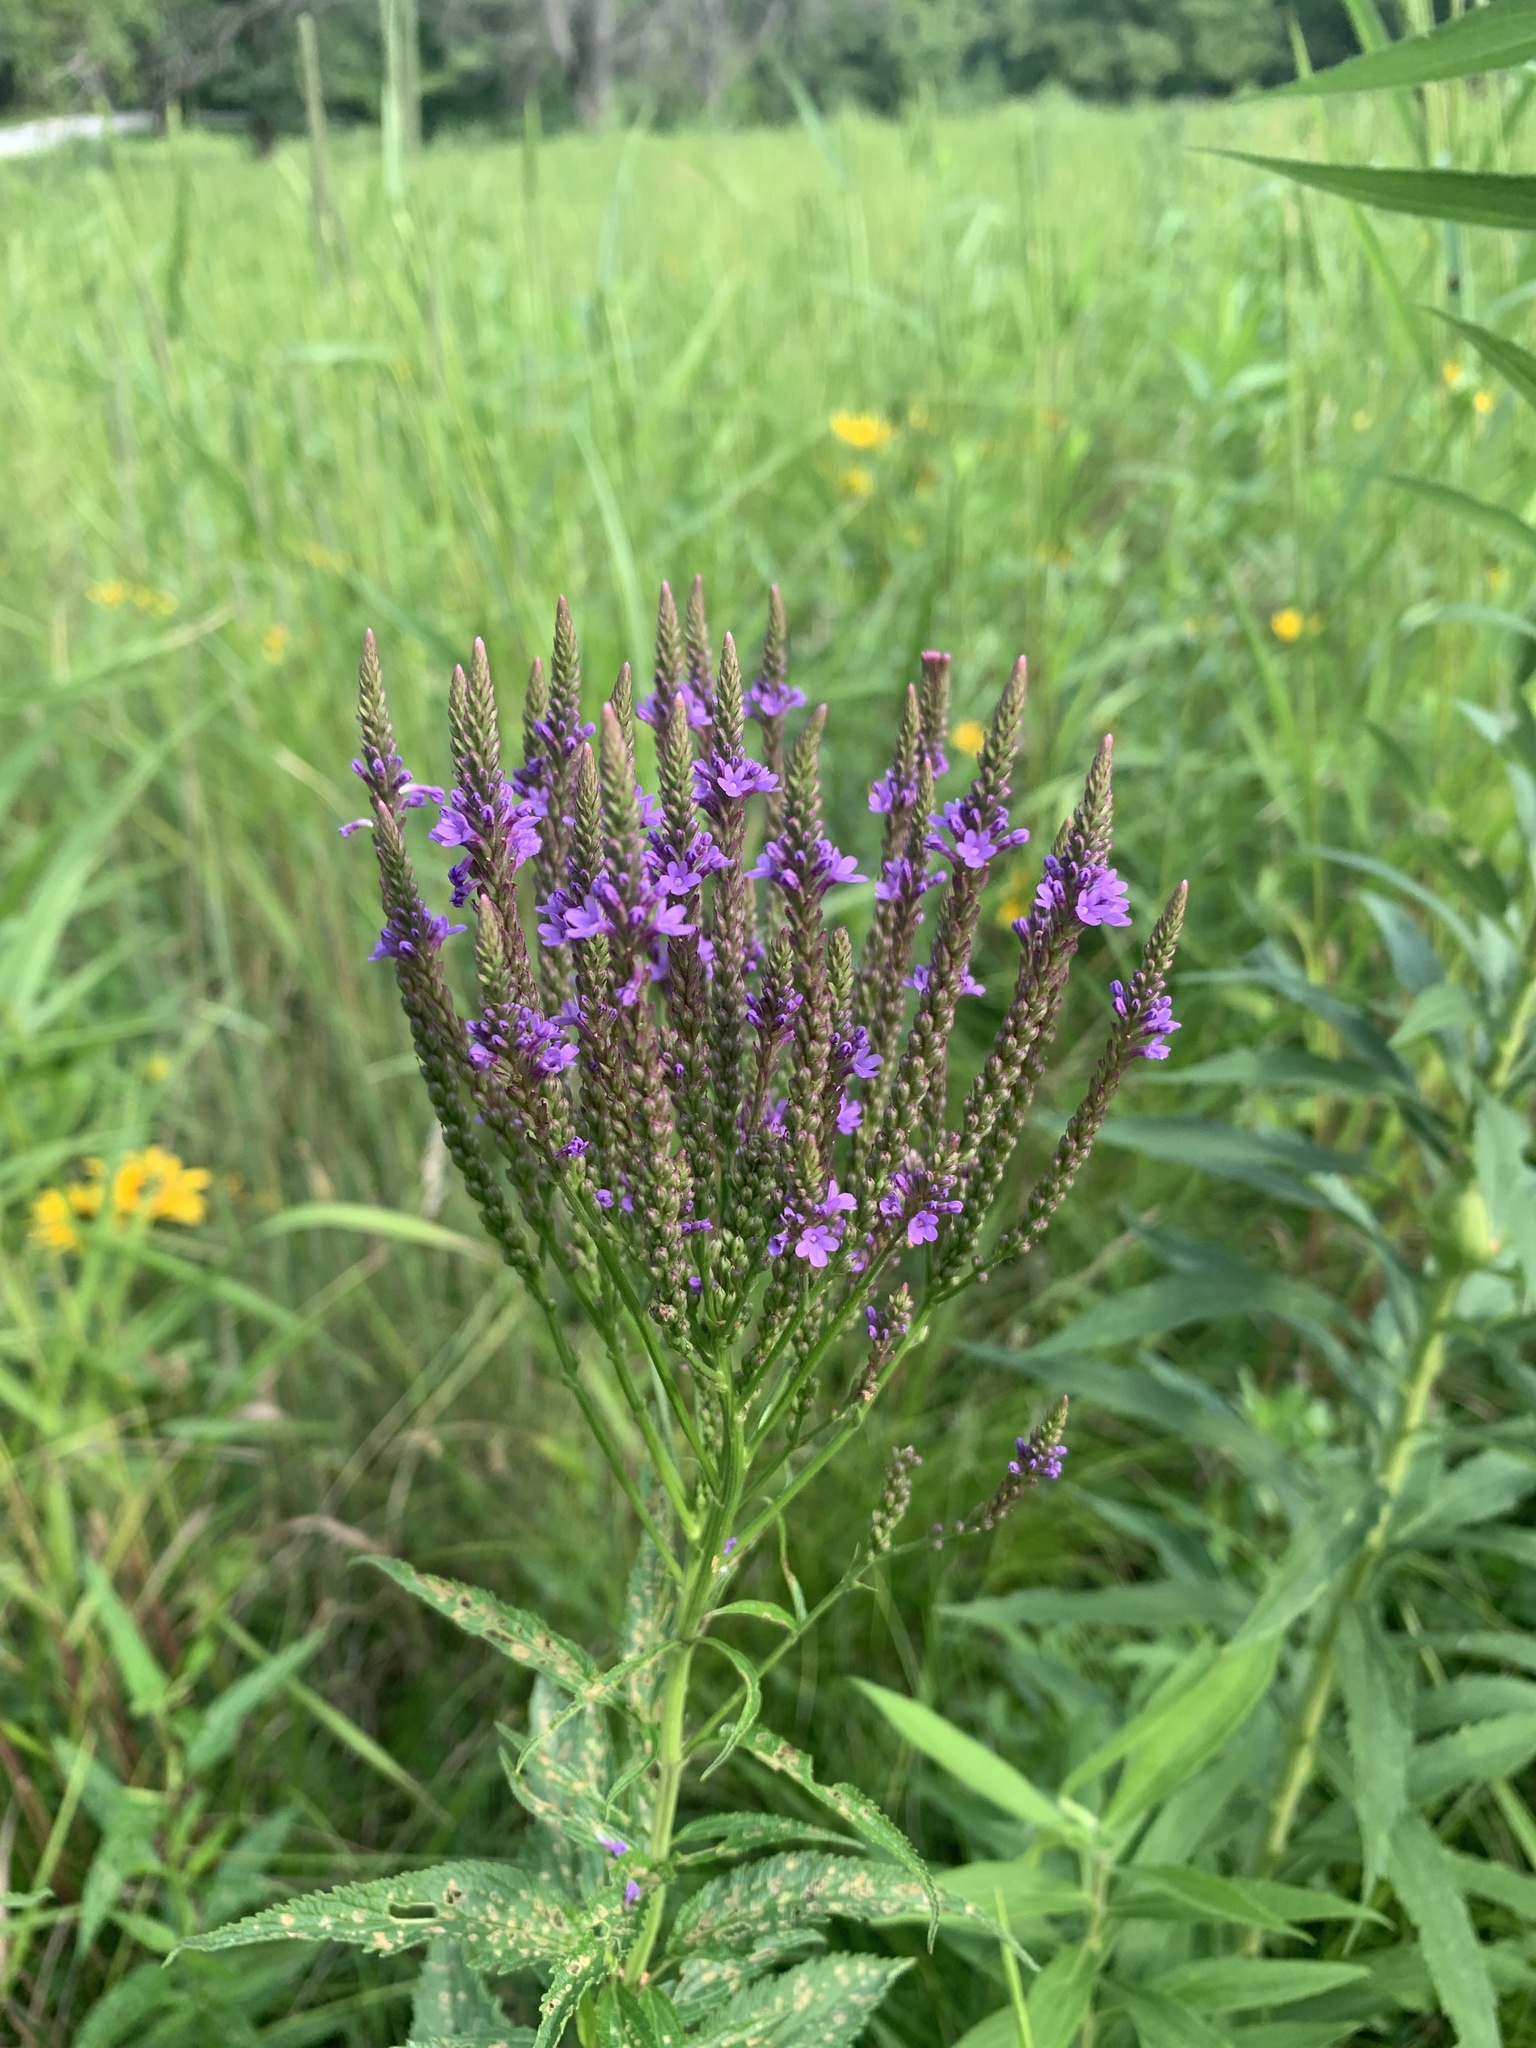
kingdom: Plantae
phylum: Tracheophyta
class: Magnoliopsida
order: Lamiales
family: Verbenaceae
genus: Verbena
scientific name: Verbena hastata
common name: American blue vervain
